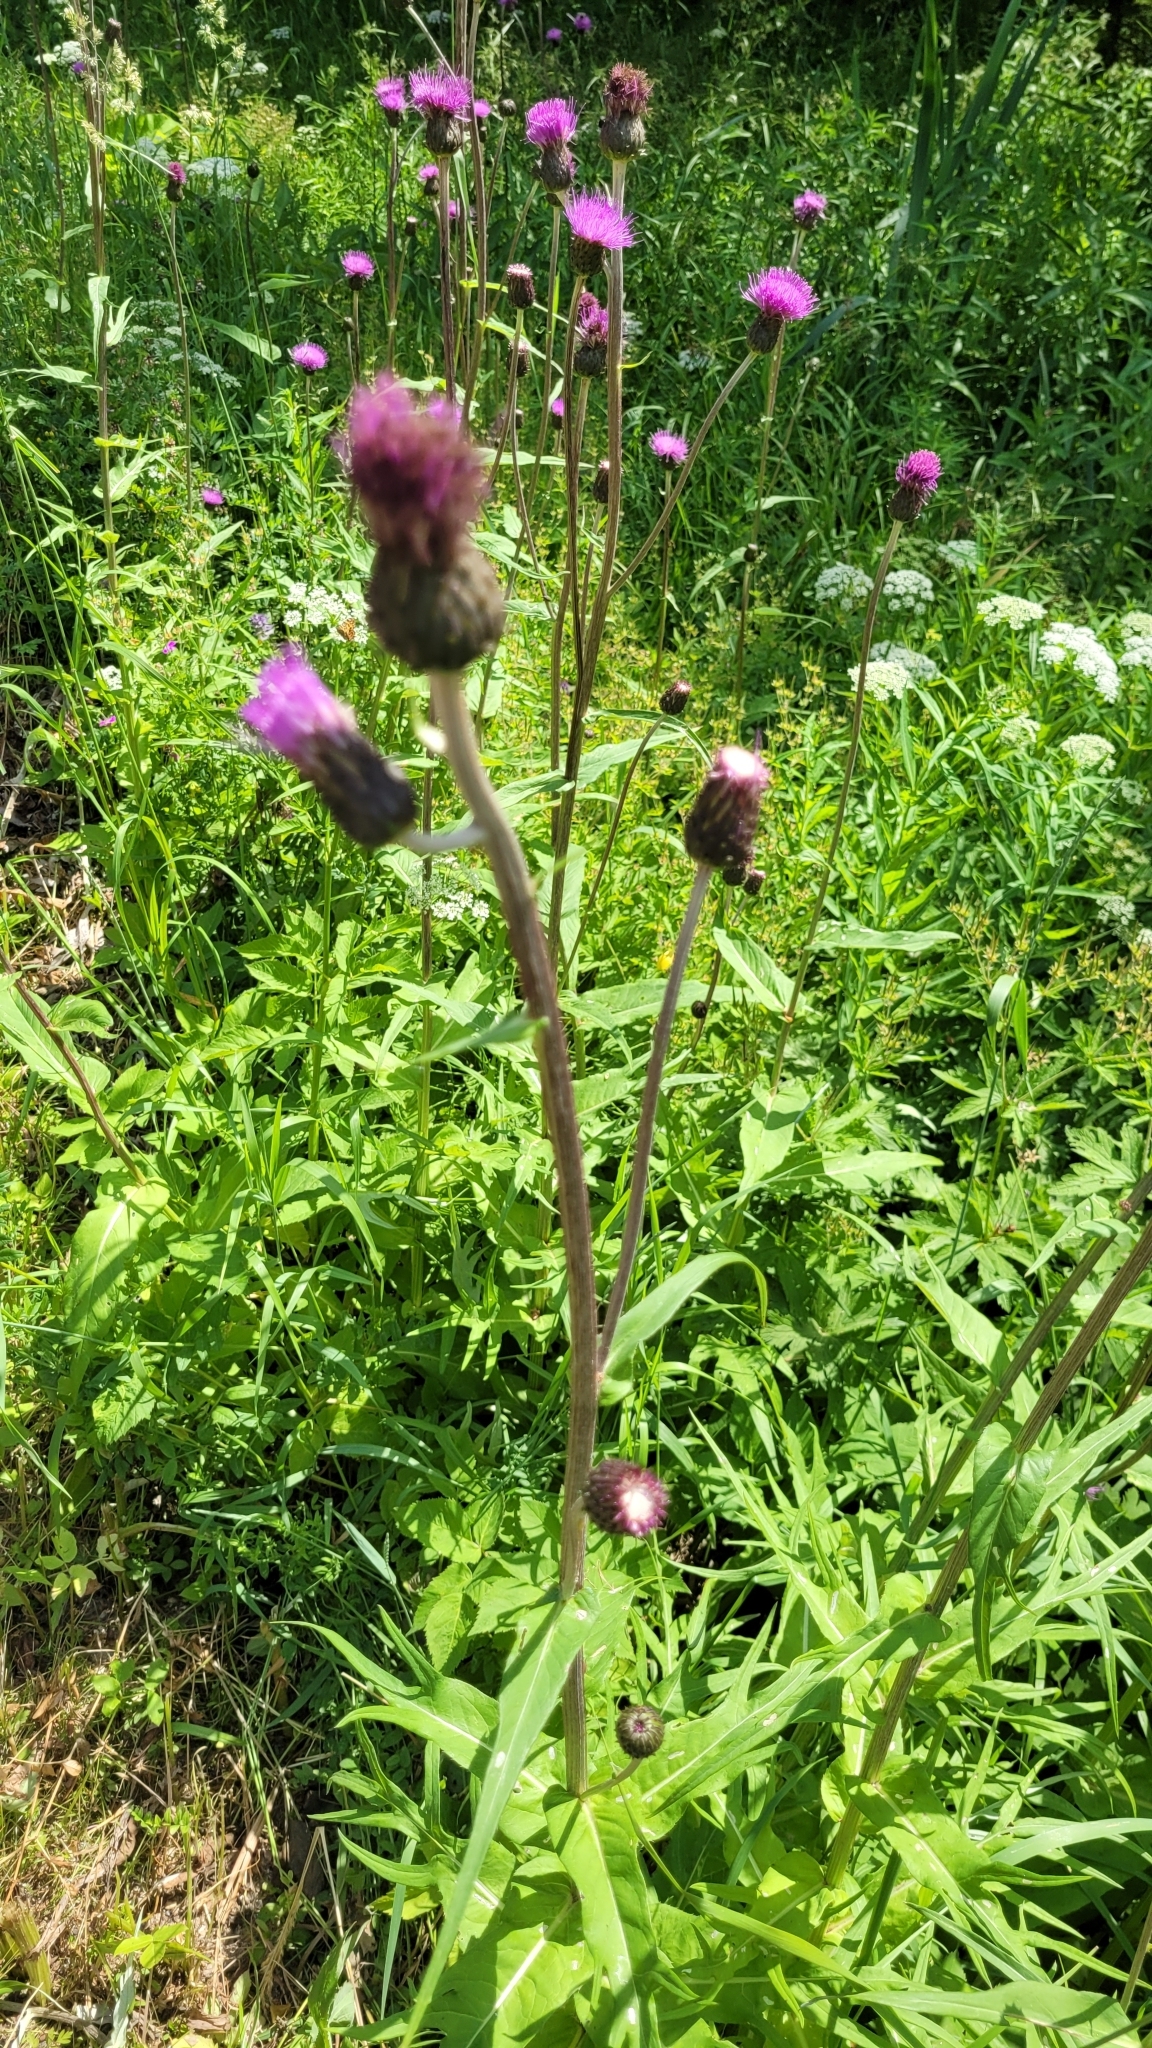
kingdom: Plantae
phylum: Tracheophyta
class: Magnoliopsida
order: Asterales
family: Asteraceae
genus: Cirsium
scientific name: Cirsium heterophyllum
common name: Melancholy thistle
